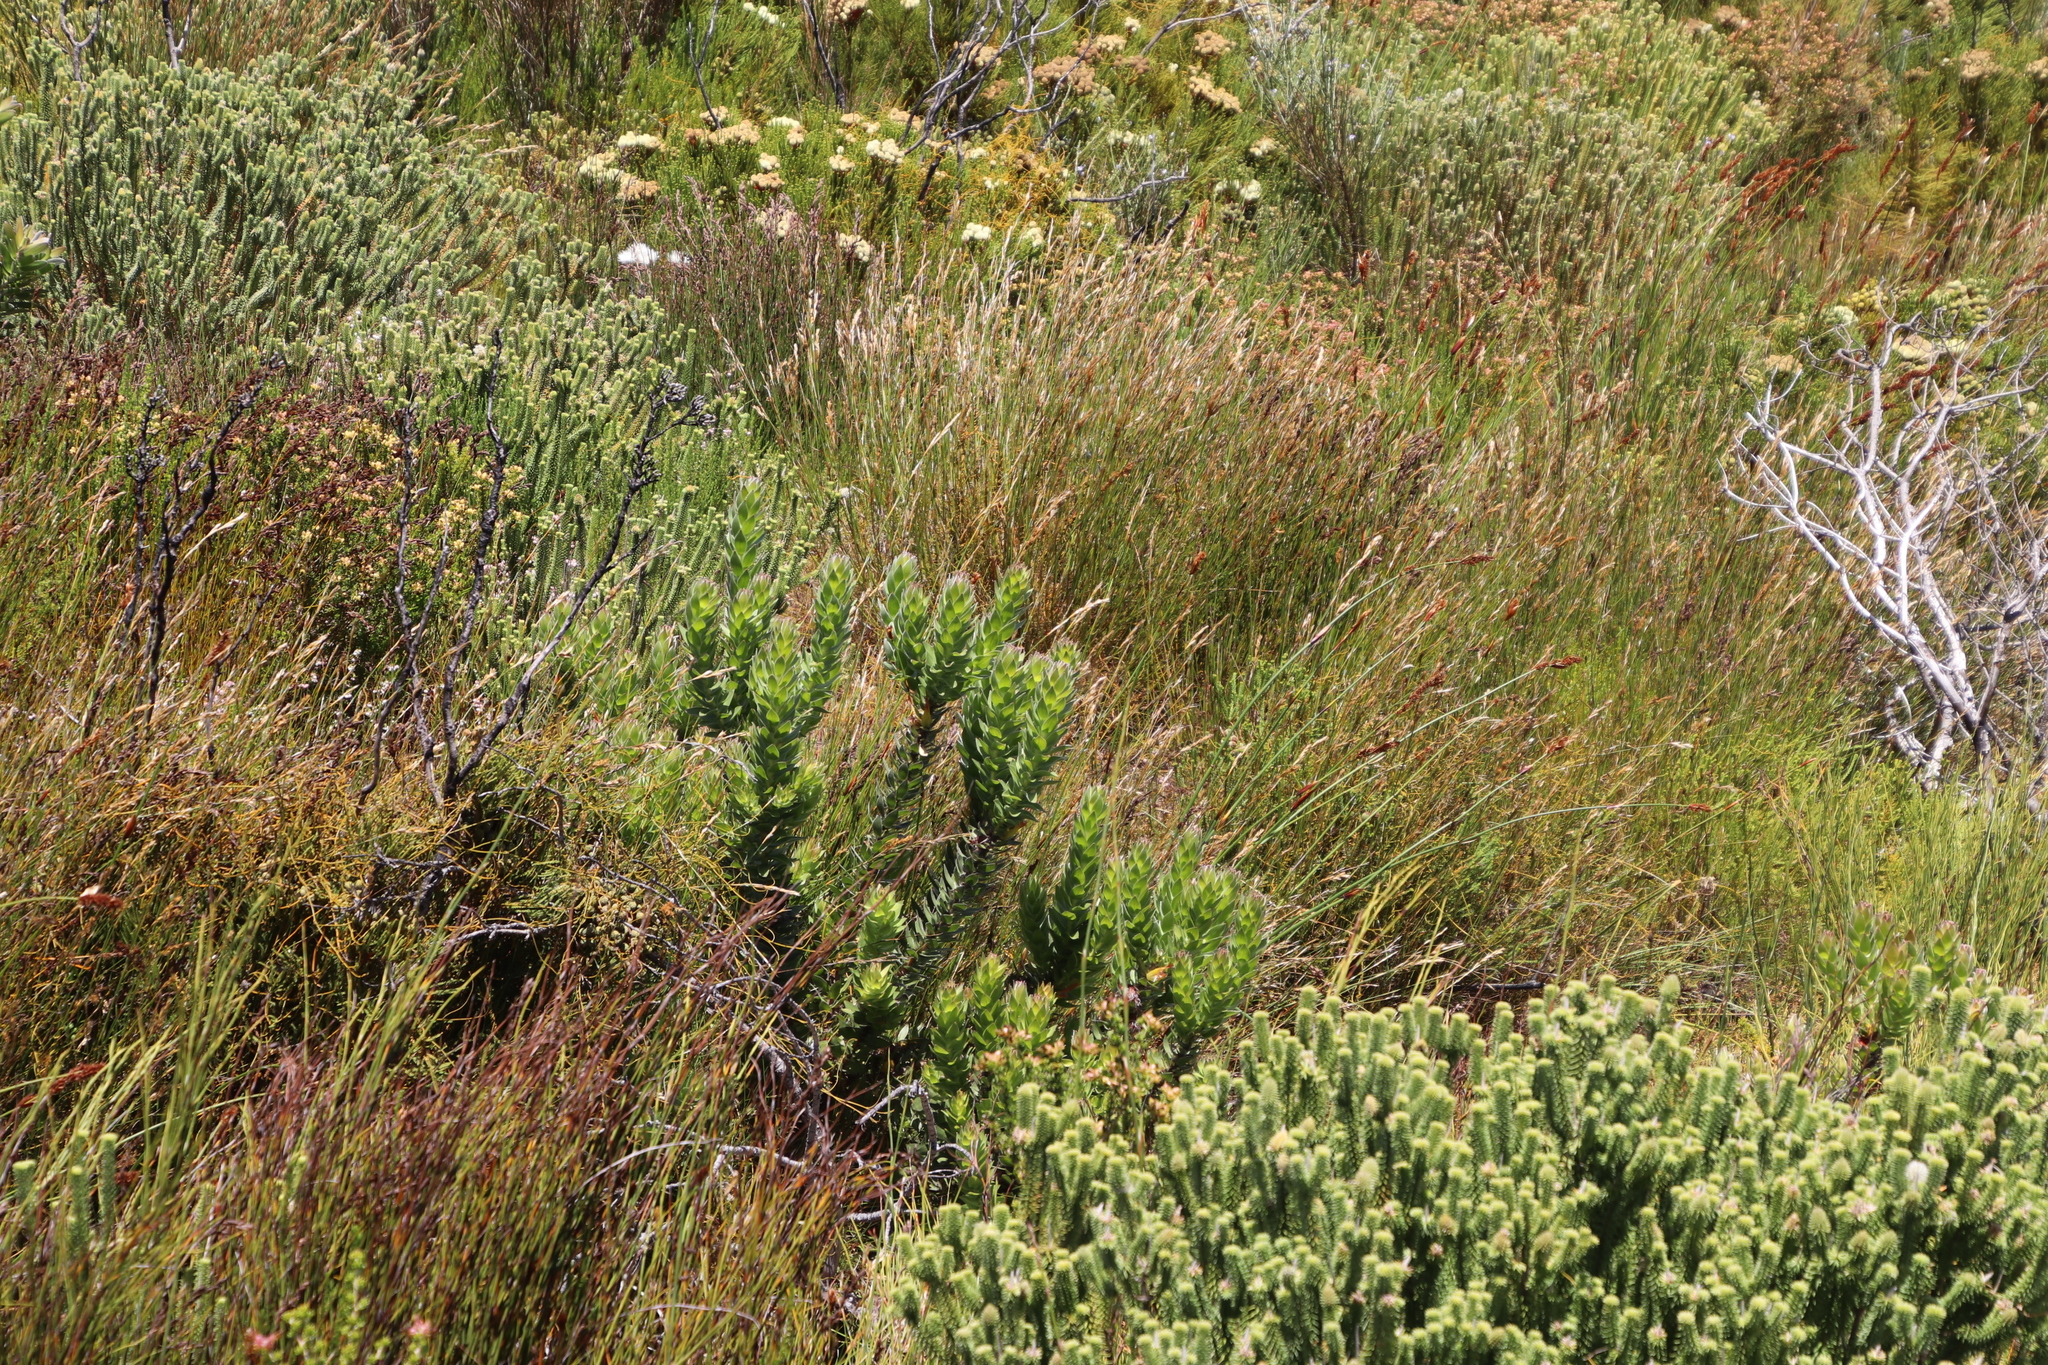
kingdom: Plantae
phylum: Tracheophyta
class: Magnoliopsida
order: Proteales
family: Proteaceae
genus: Mimetes
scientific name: Mimetes hirtus
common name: Marsh pagoda
